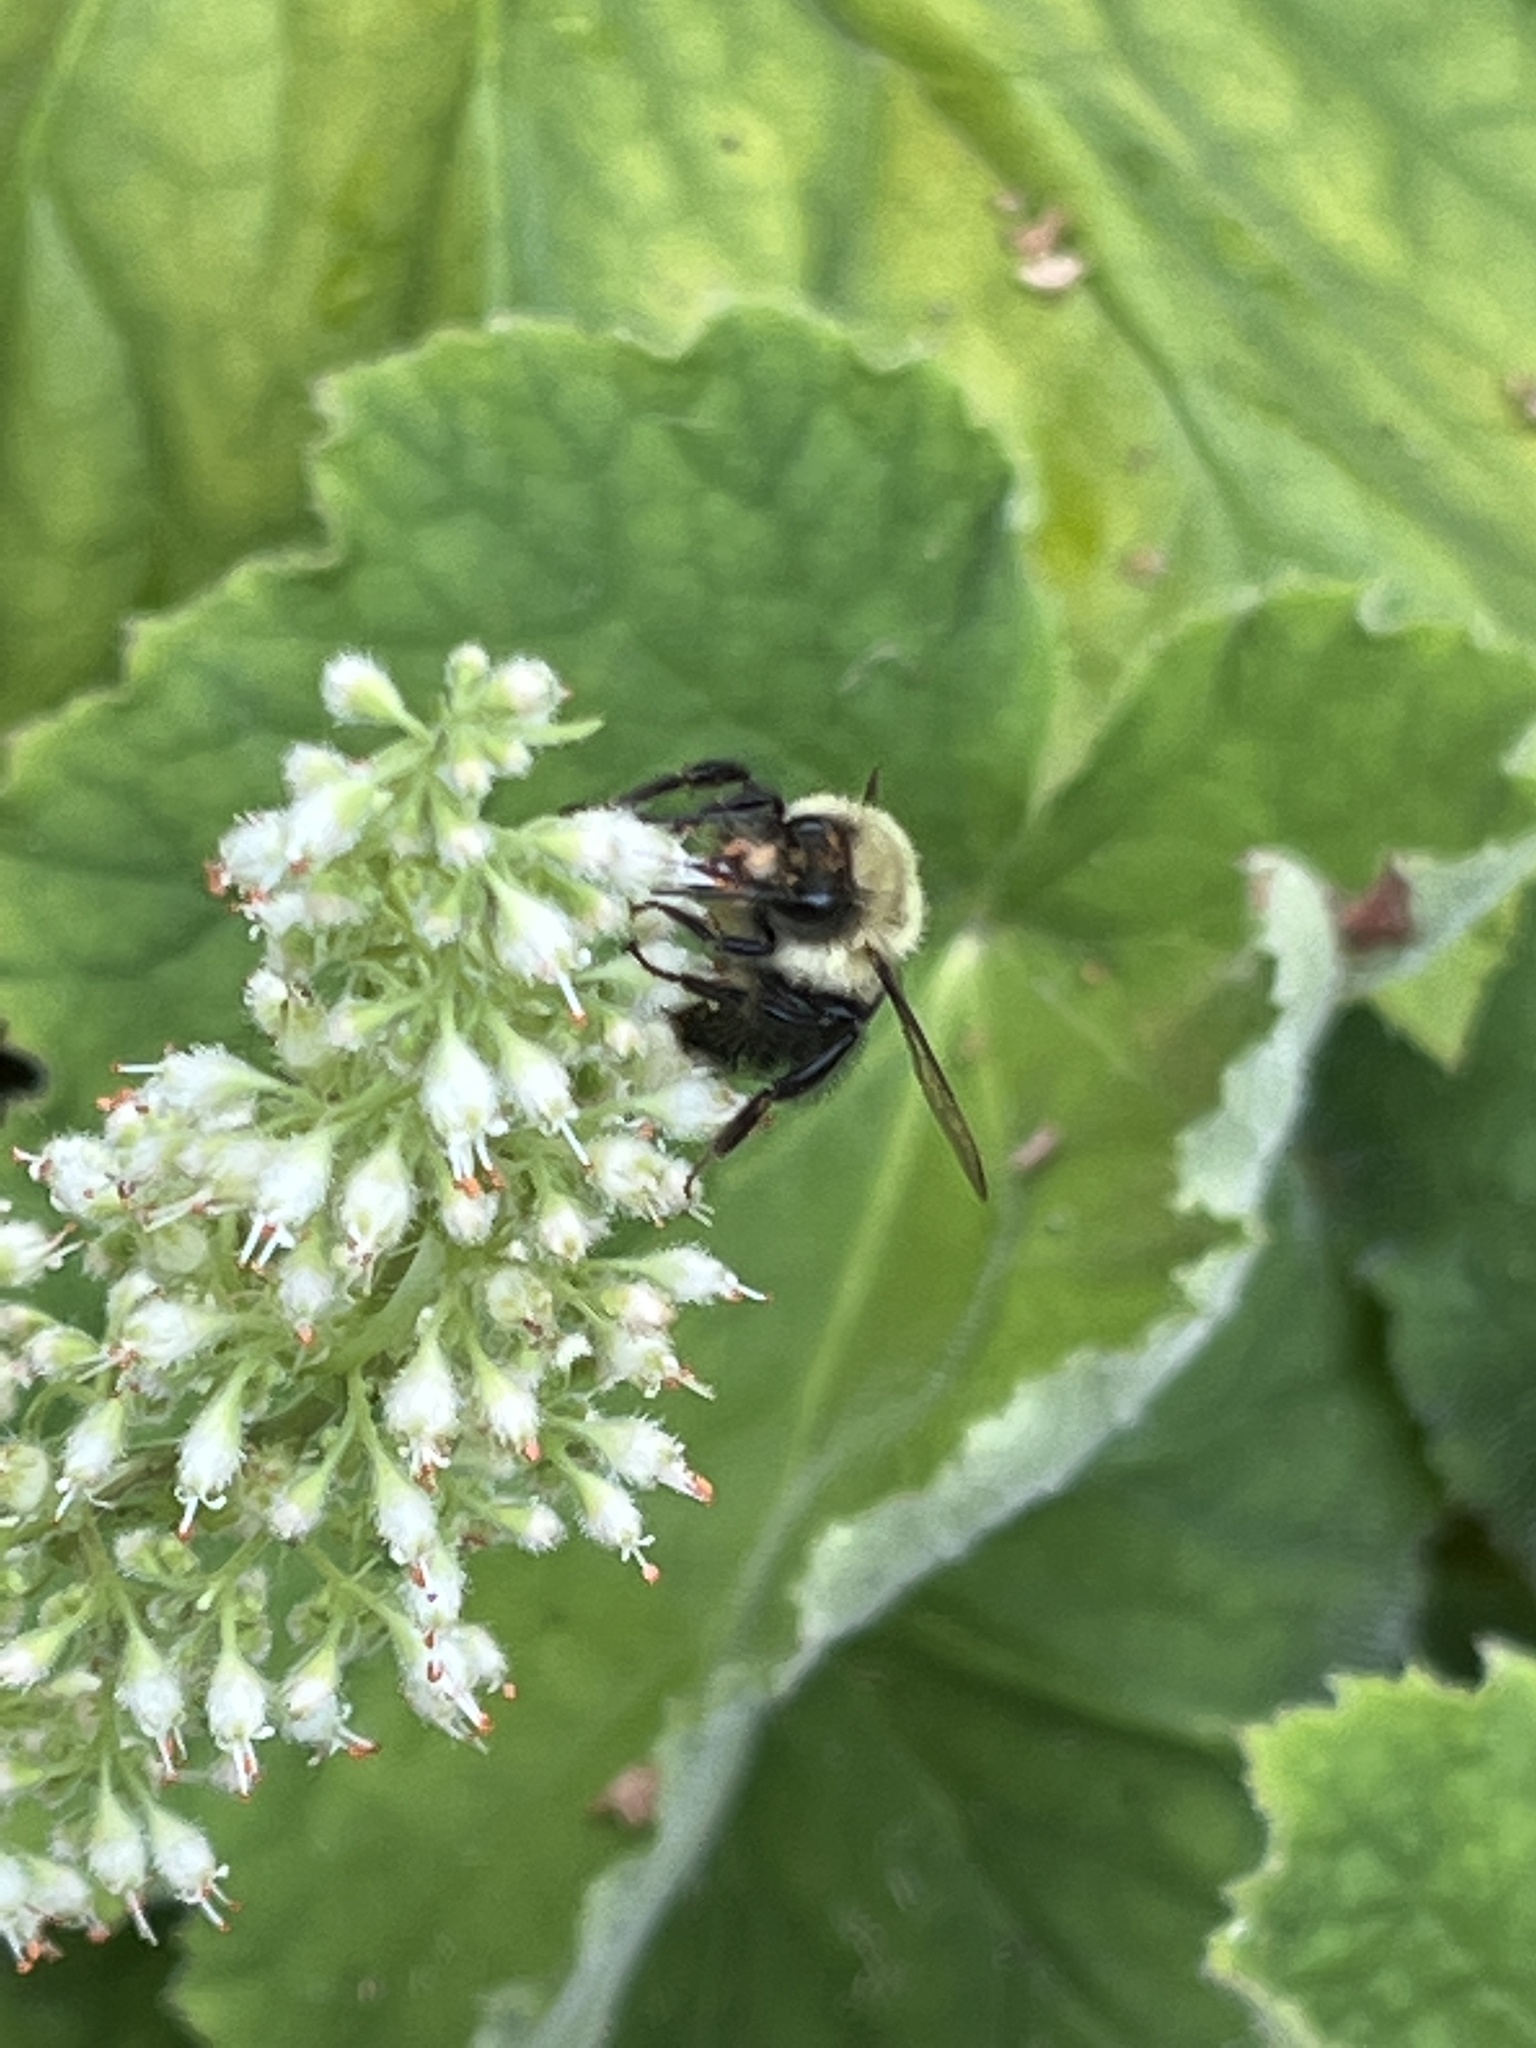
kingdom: Animalia
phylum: Arthropoda
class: Insecta
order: Hymenoptera
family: Apidae
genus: Bombus
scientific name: Bombus impatiens
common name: Common eastern bumble bee
